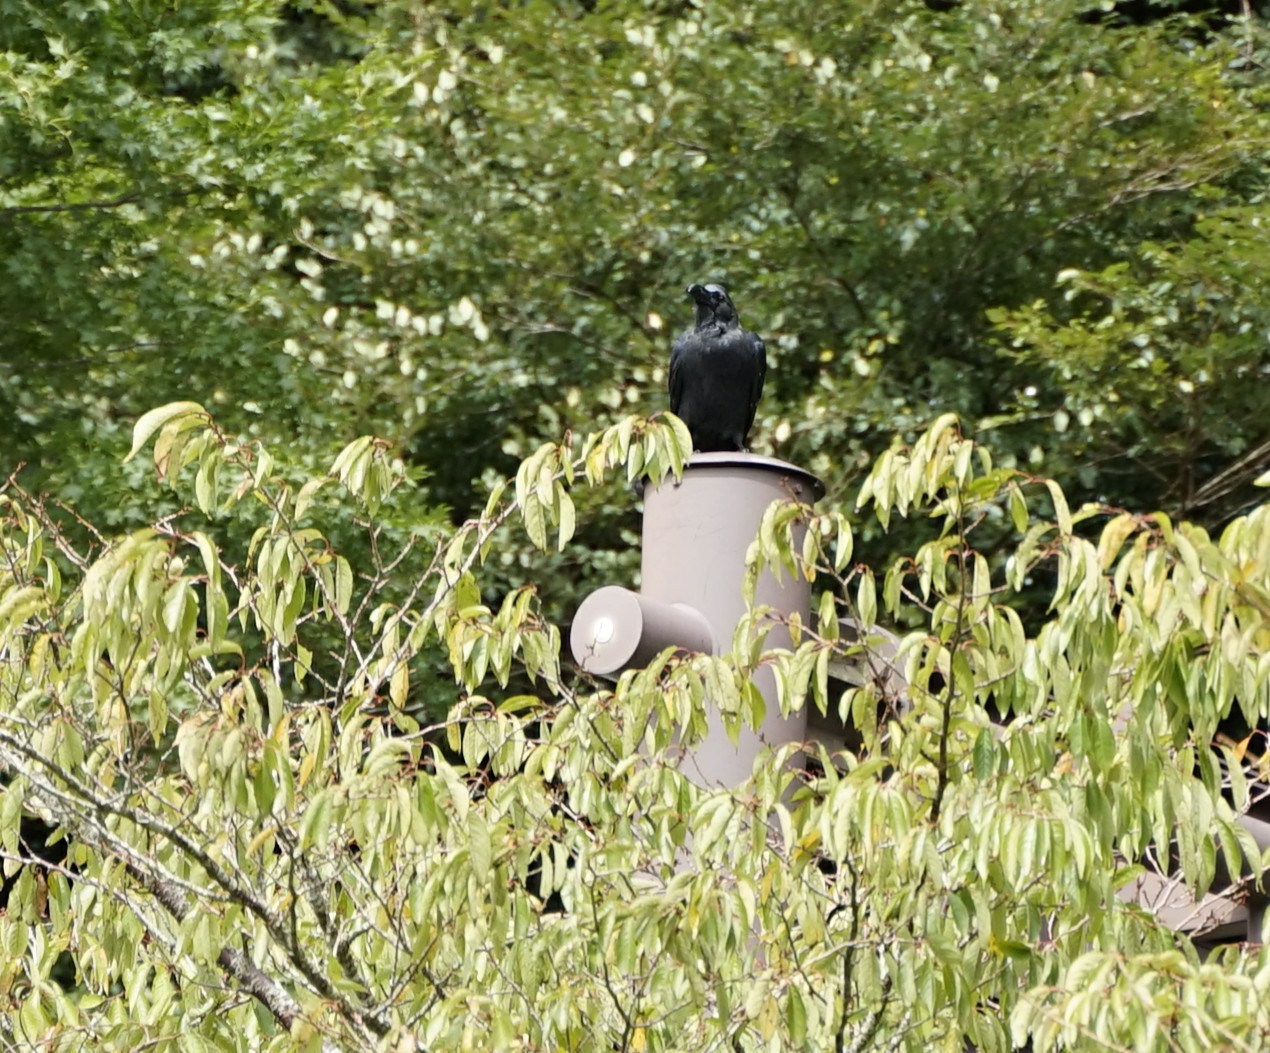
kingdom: Animalia
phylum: Chordata
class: Aves
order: Passeriformes
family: Corvidae
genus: Corvus
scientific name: Corvus macrorhynchos
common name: Large-billed crow
